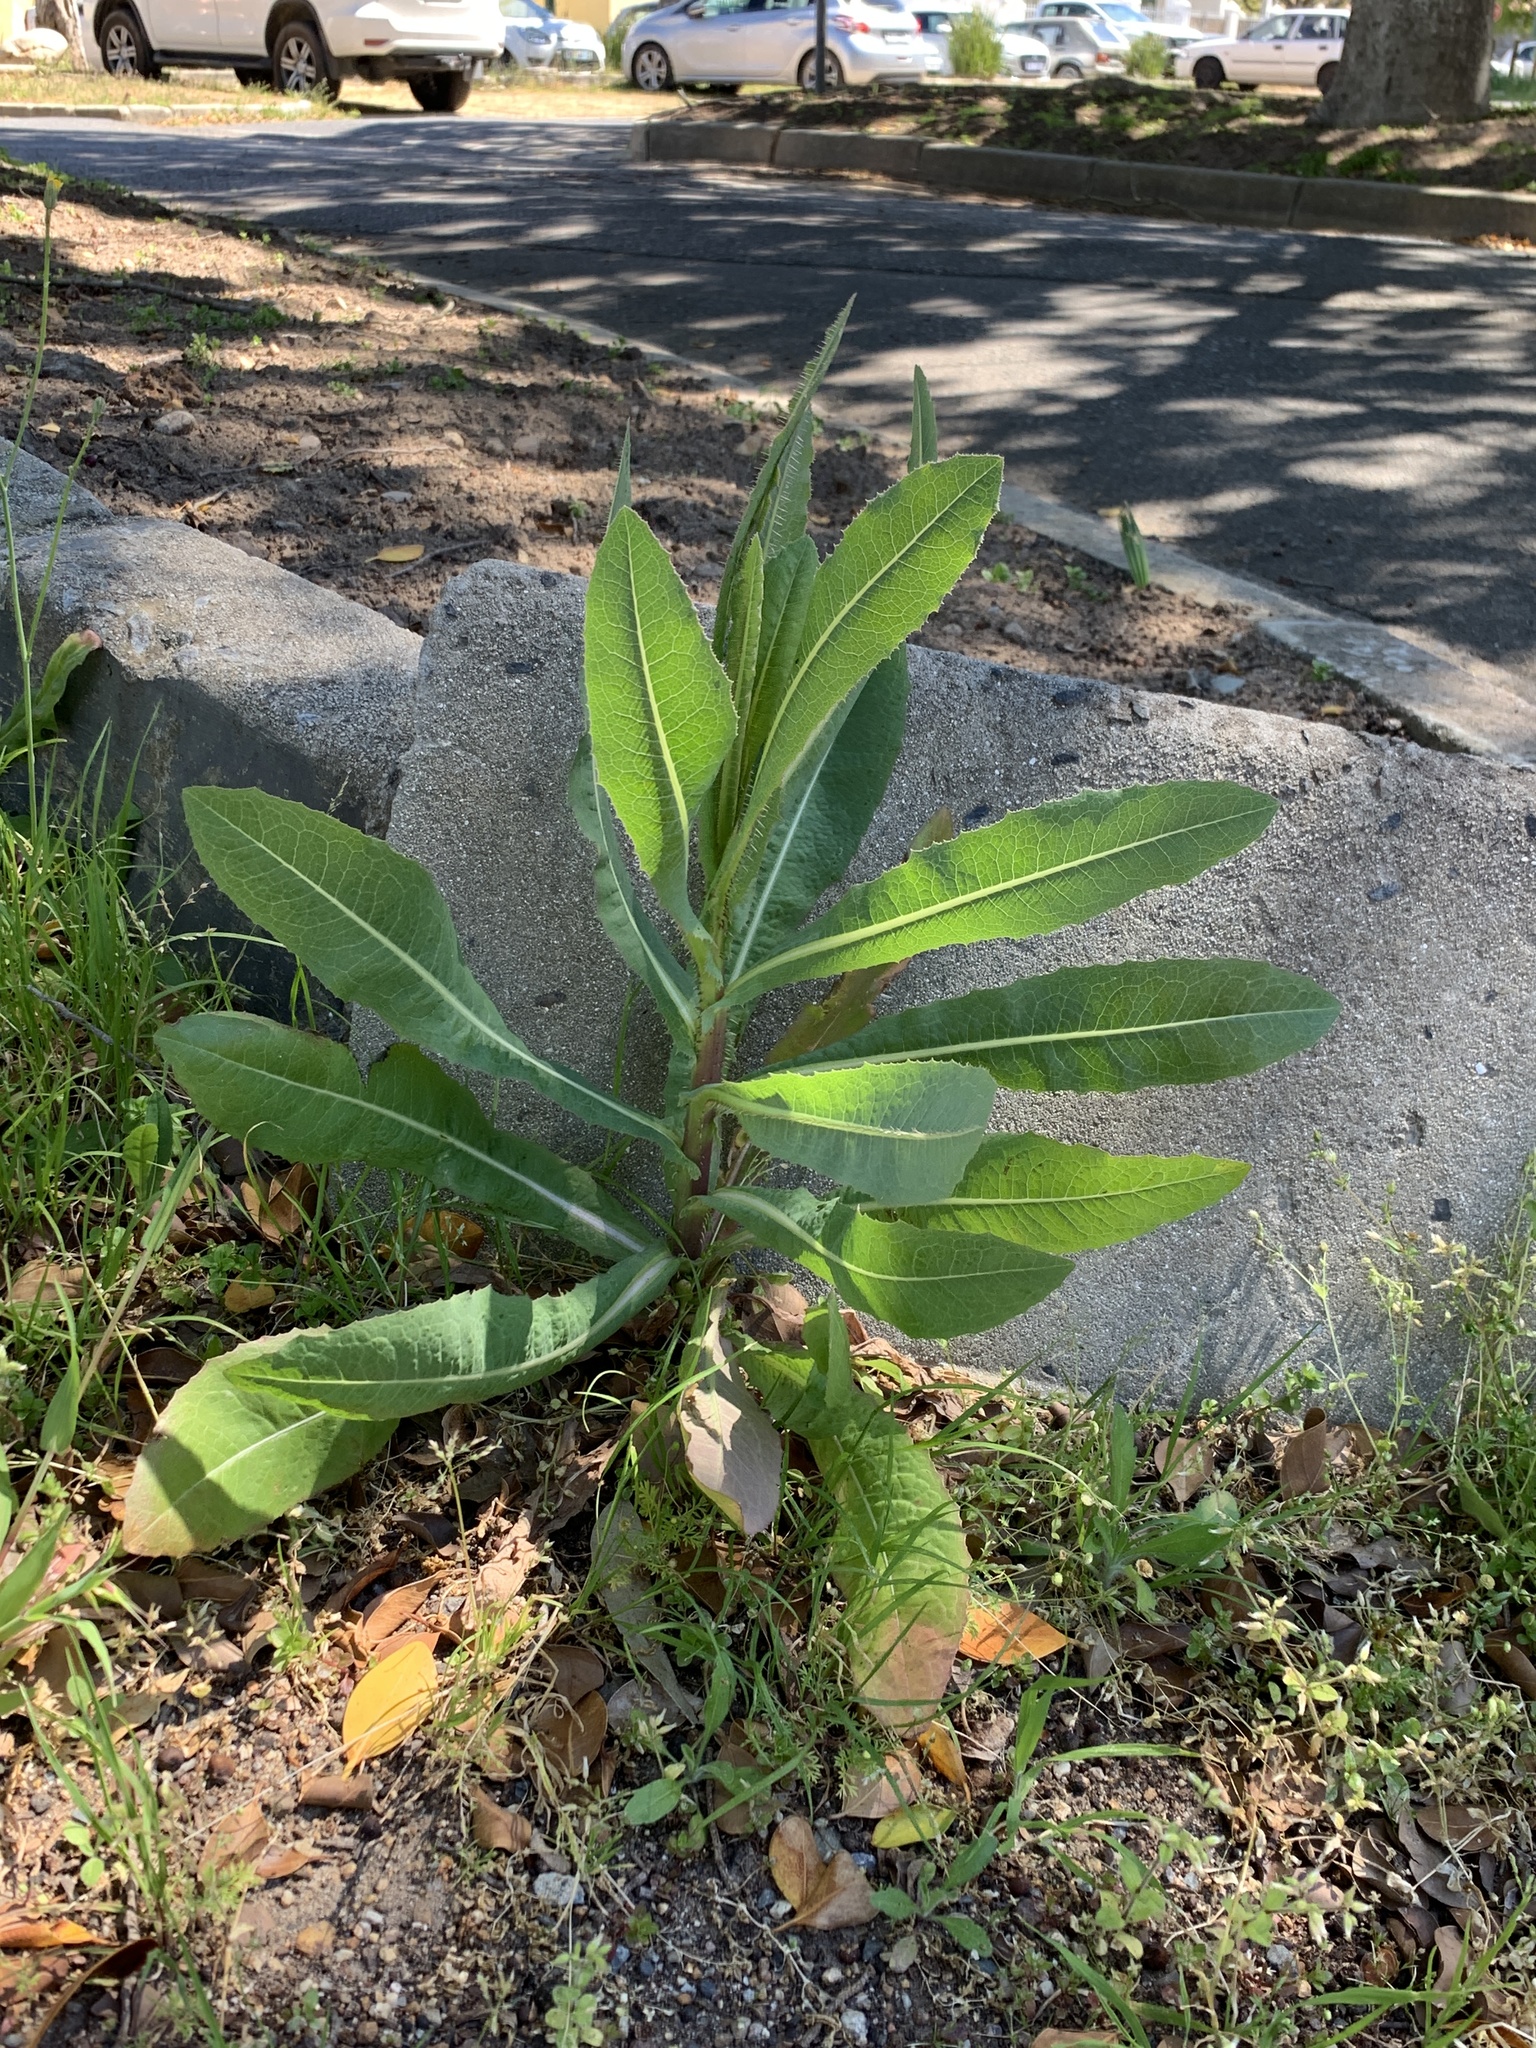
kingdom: Plantae
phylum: Tracheophyta
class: Magnoliopsida
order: Asterales
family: Asteraceae
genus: Lactuca
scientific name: Lactuca serriola
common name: Prickly lettuce
